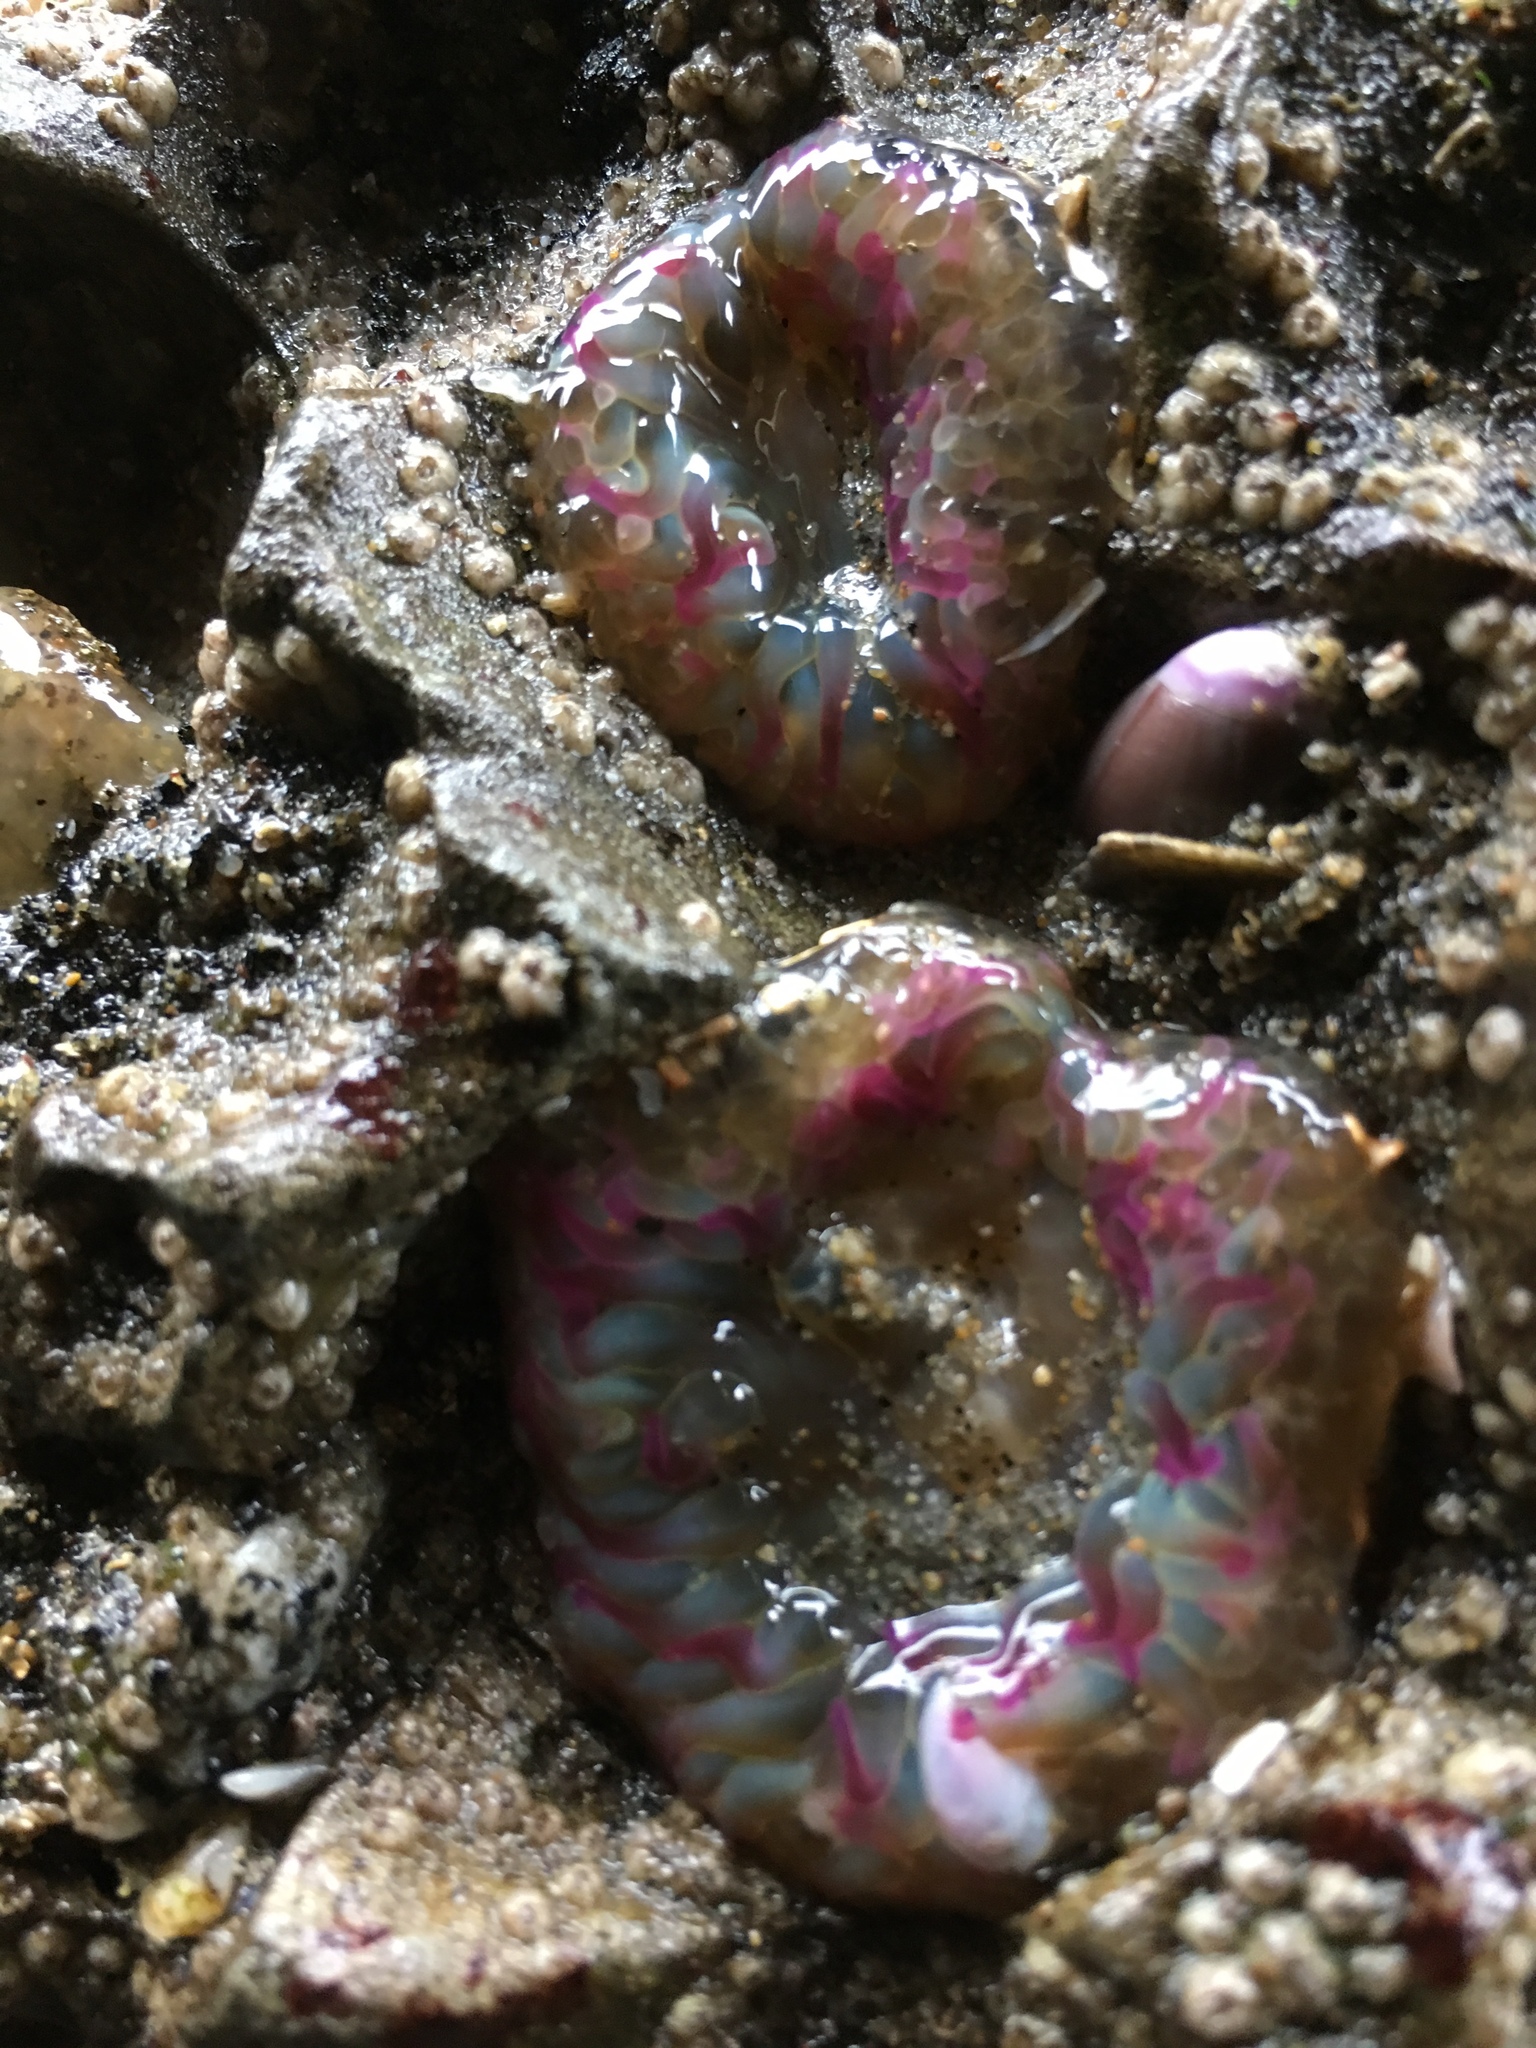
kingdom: Animalia
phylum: Cnidaria
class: Anthozoa
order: Actiniaria
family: Actiniidae
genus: Anthopleura
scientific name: Anthopleura elegantissima
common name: Clonal anemone
